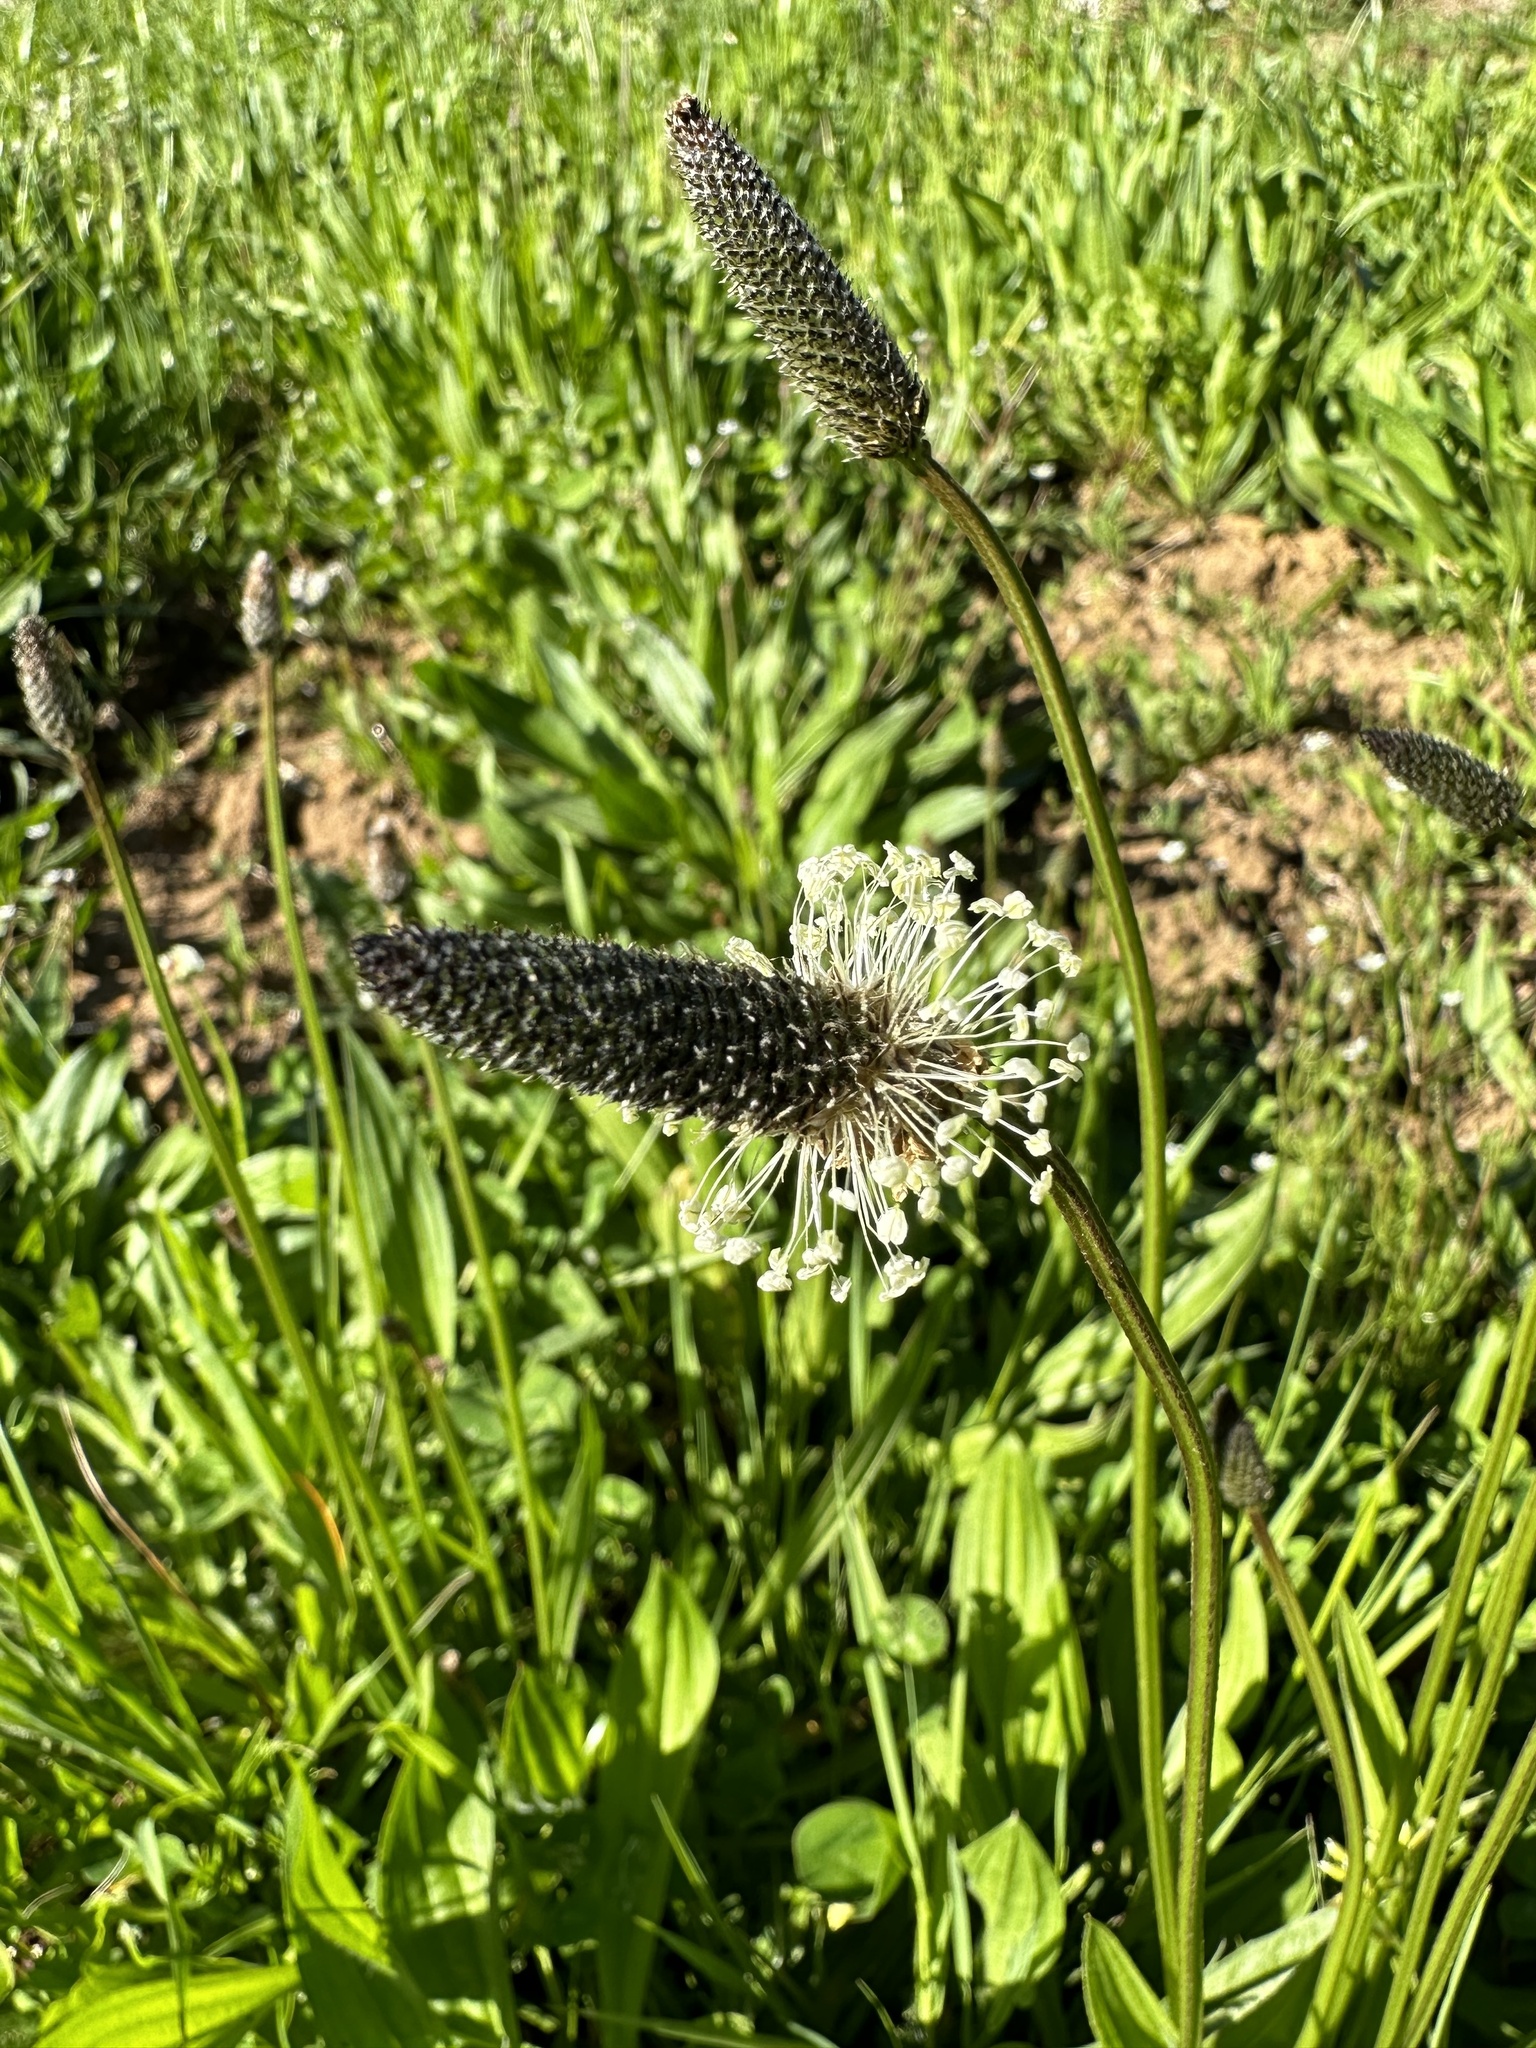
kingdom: Plantae
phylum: Tracheophyta
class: Magnoliopsida
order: Lamiales
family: Plantaginaceae
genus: Plantago
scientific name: Plantago lanceolata
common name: Ribwort plantain
